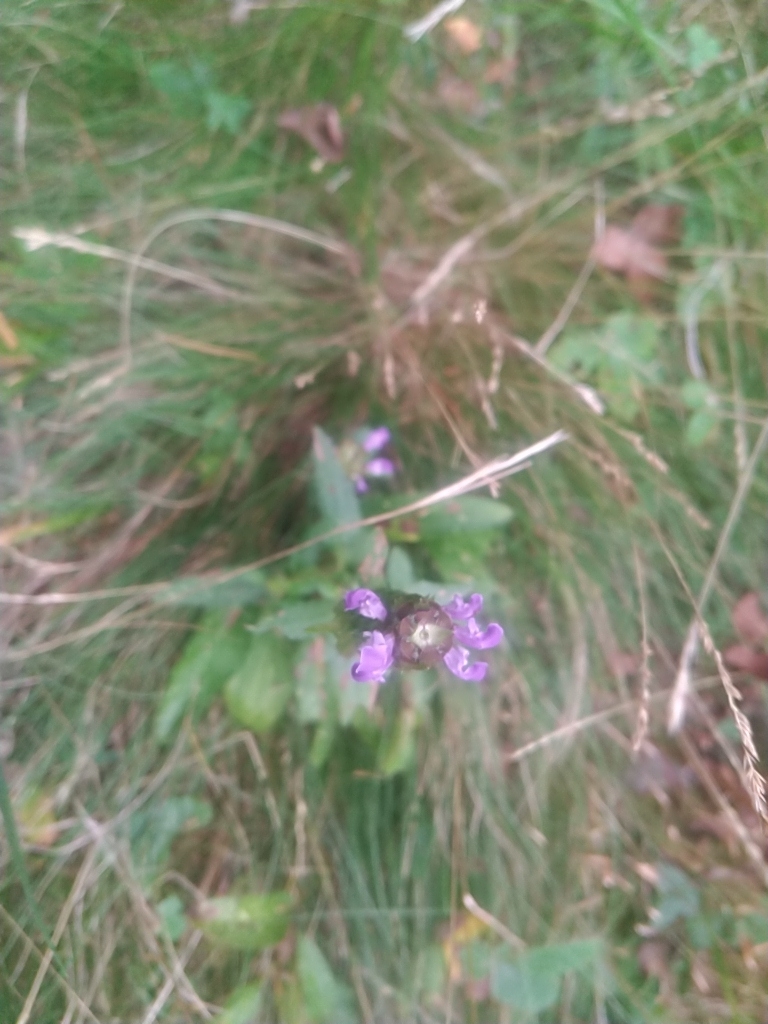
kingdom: Plantae
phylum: Tracheophyta
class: Magnoliopsida
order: Lamiales
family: Lamiaceae
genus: Prunella
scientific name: Prunella vulgaris
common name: Heal-all
